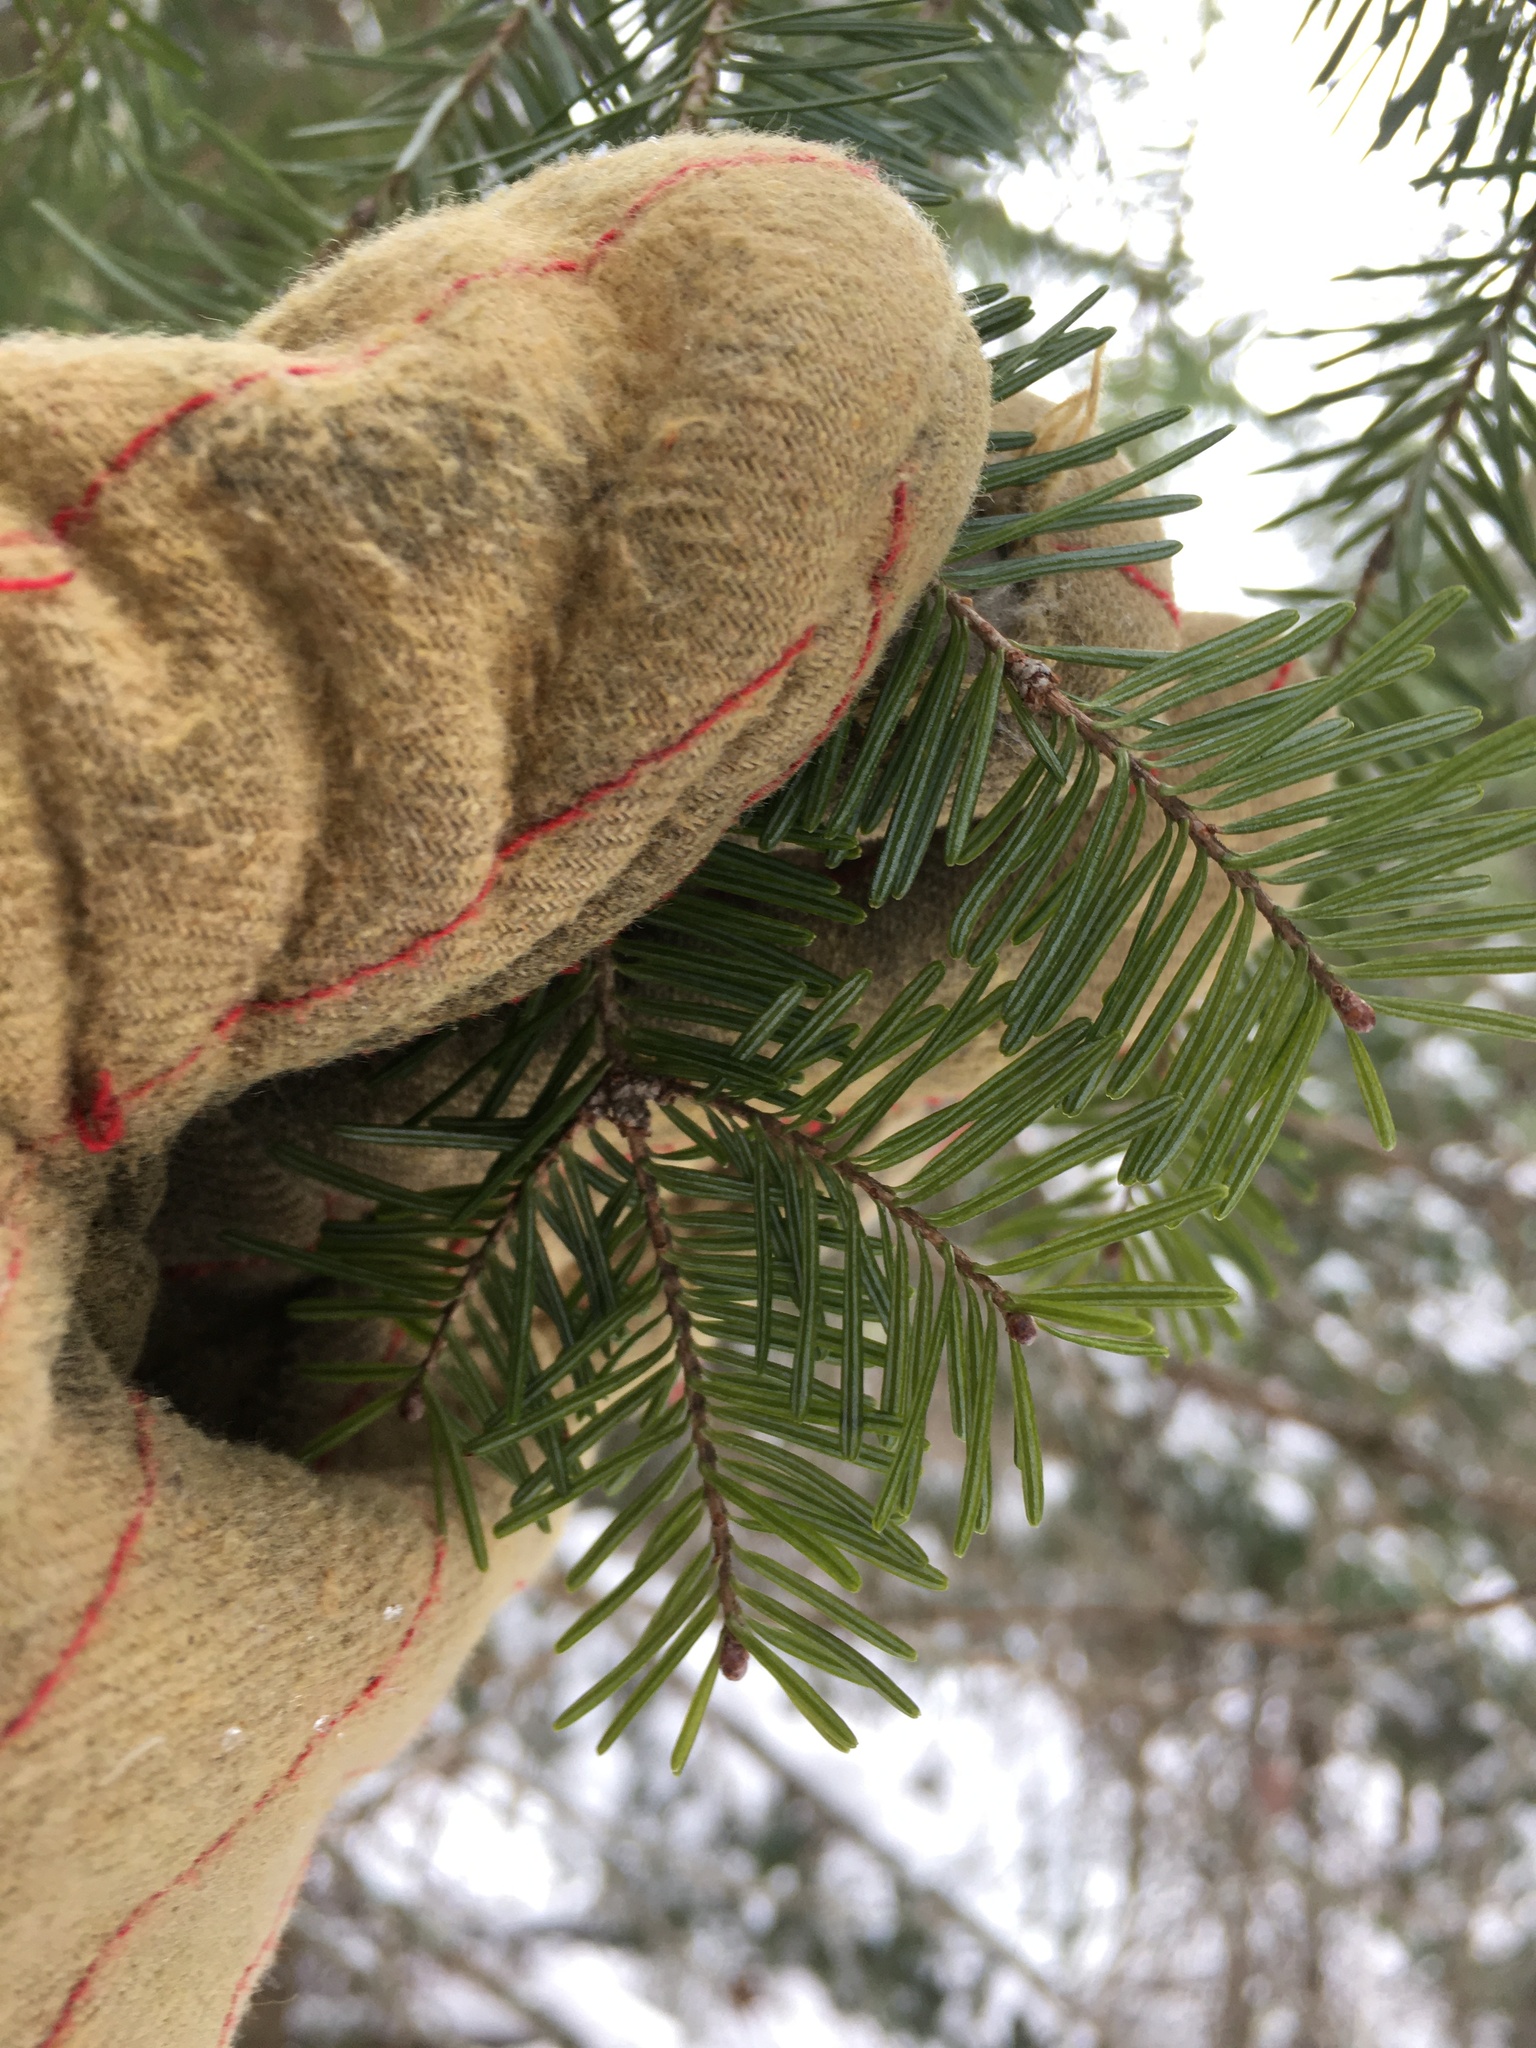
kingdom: Plantae
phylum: Tracheophyta
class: Pinopsida
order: Pinales
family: Pinaceae
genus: Abies
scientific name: Abies balsamea
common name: Balsam fir
